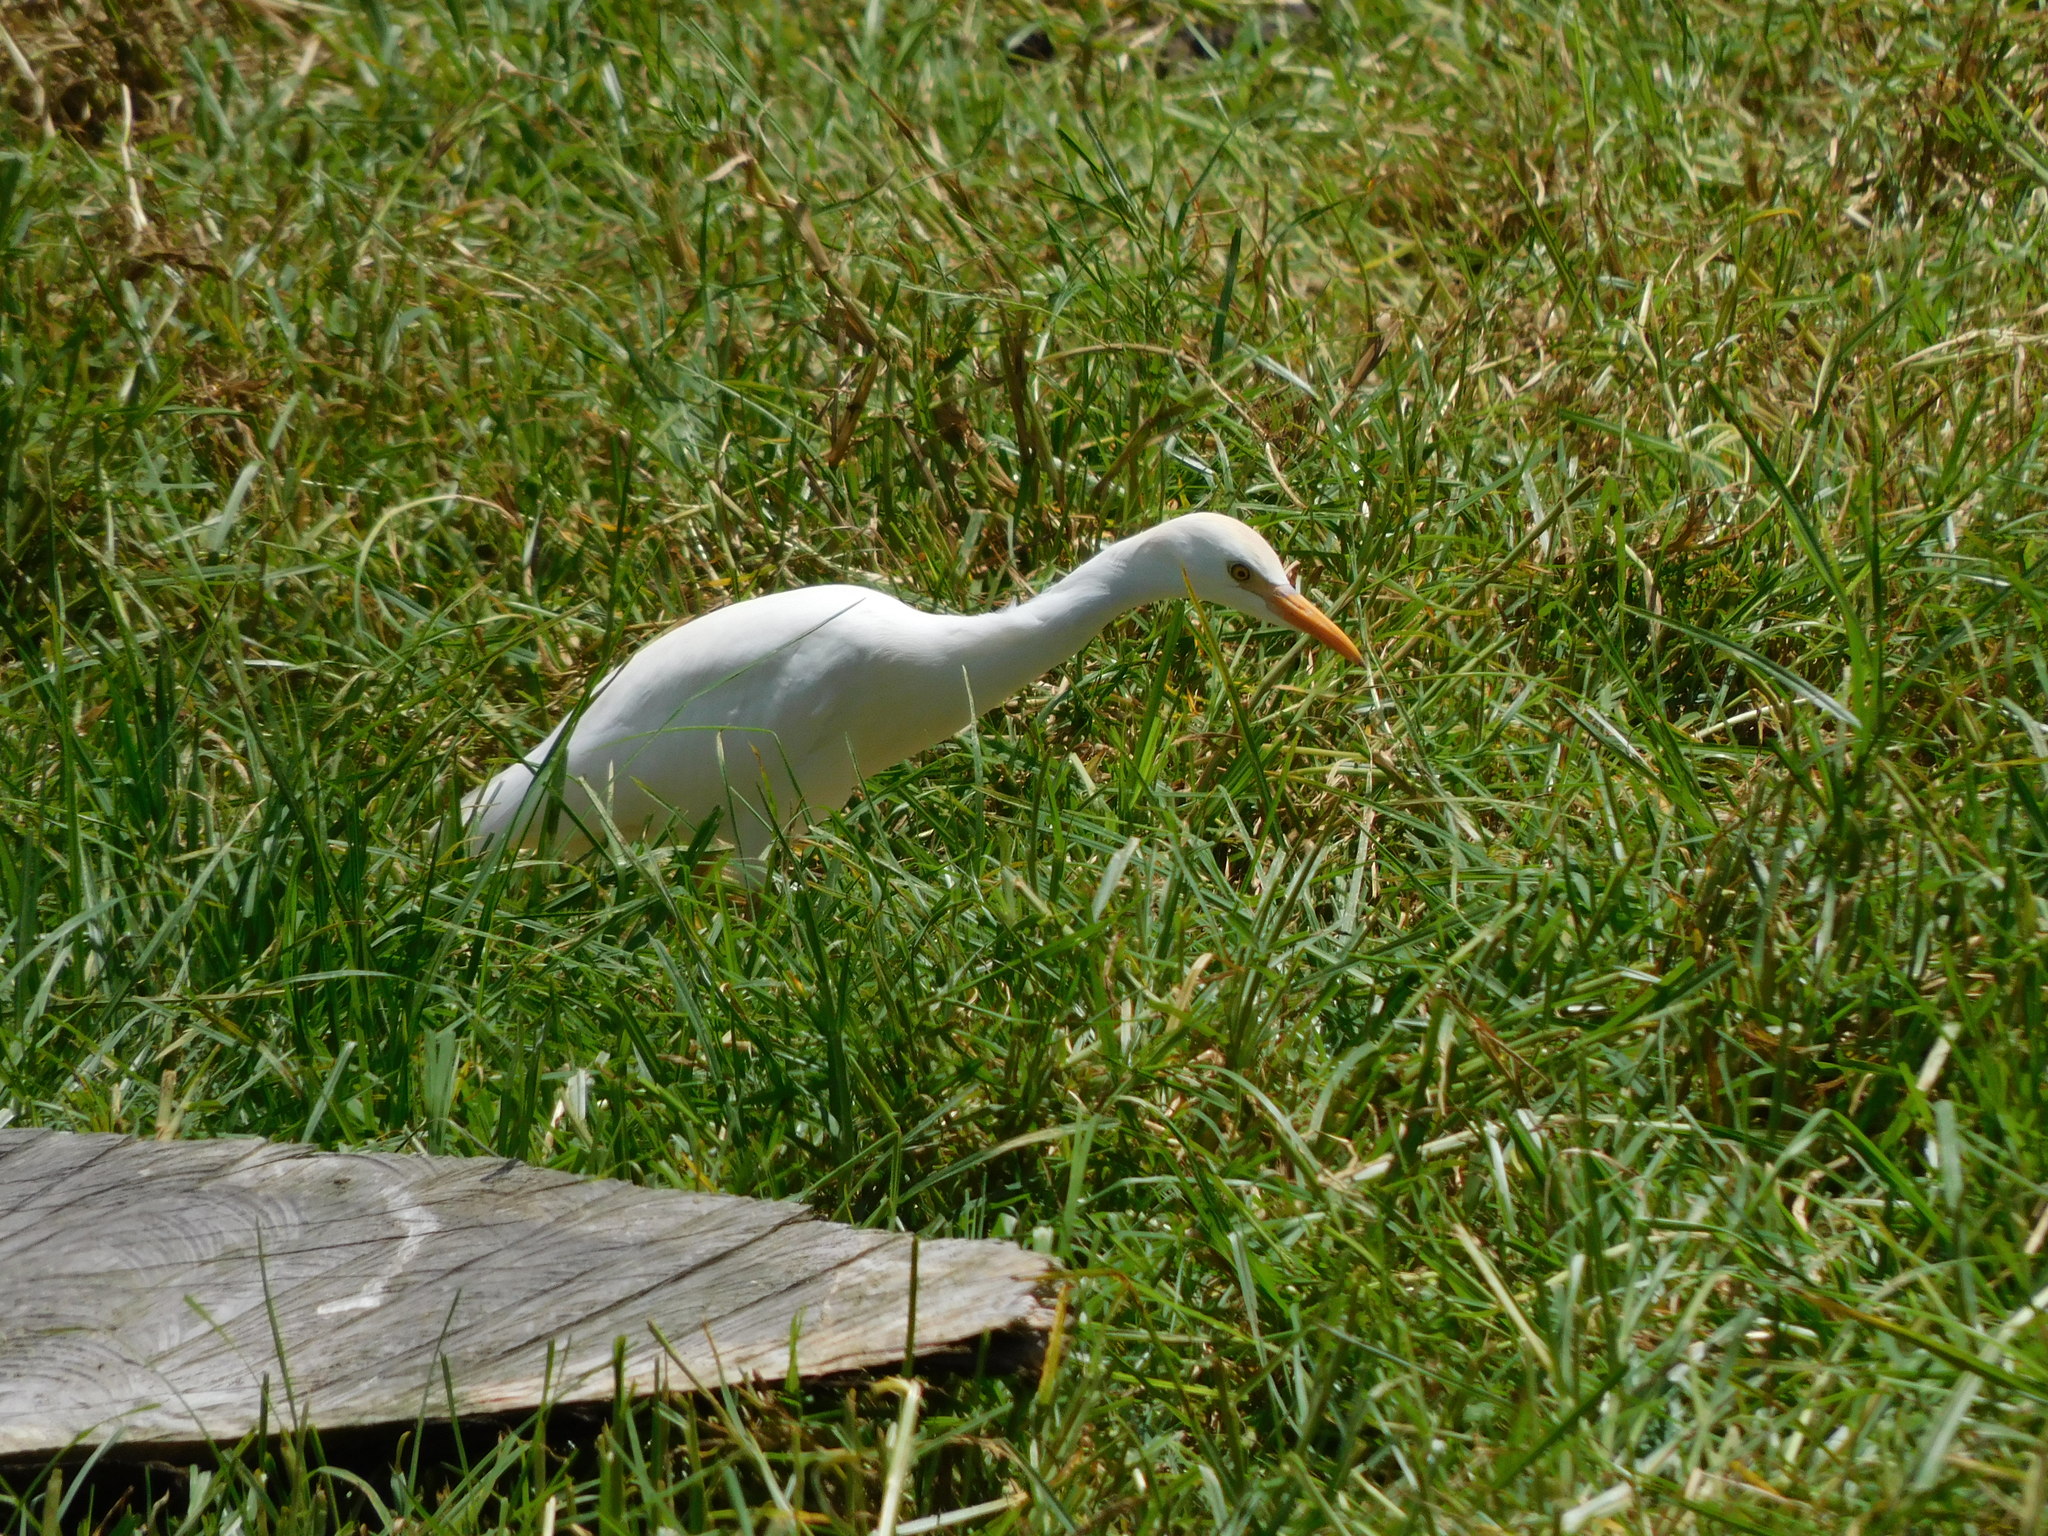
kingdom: Animalia
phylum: Chordata
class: Aves
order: Pelecaniformes
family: Ardeidae
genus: Bubulcus
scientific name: Bubulcus ibis
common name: Cattle egret
